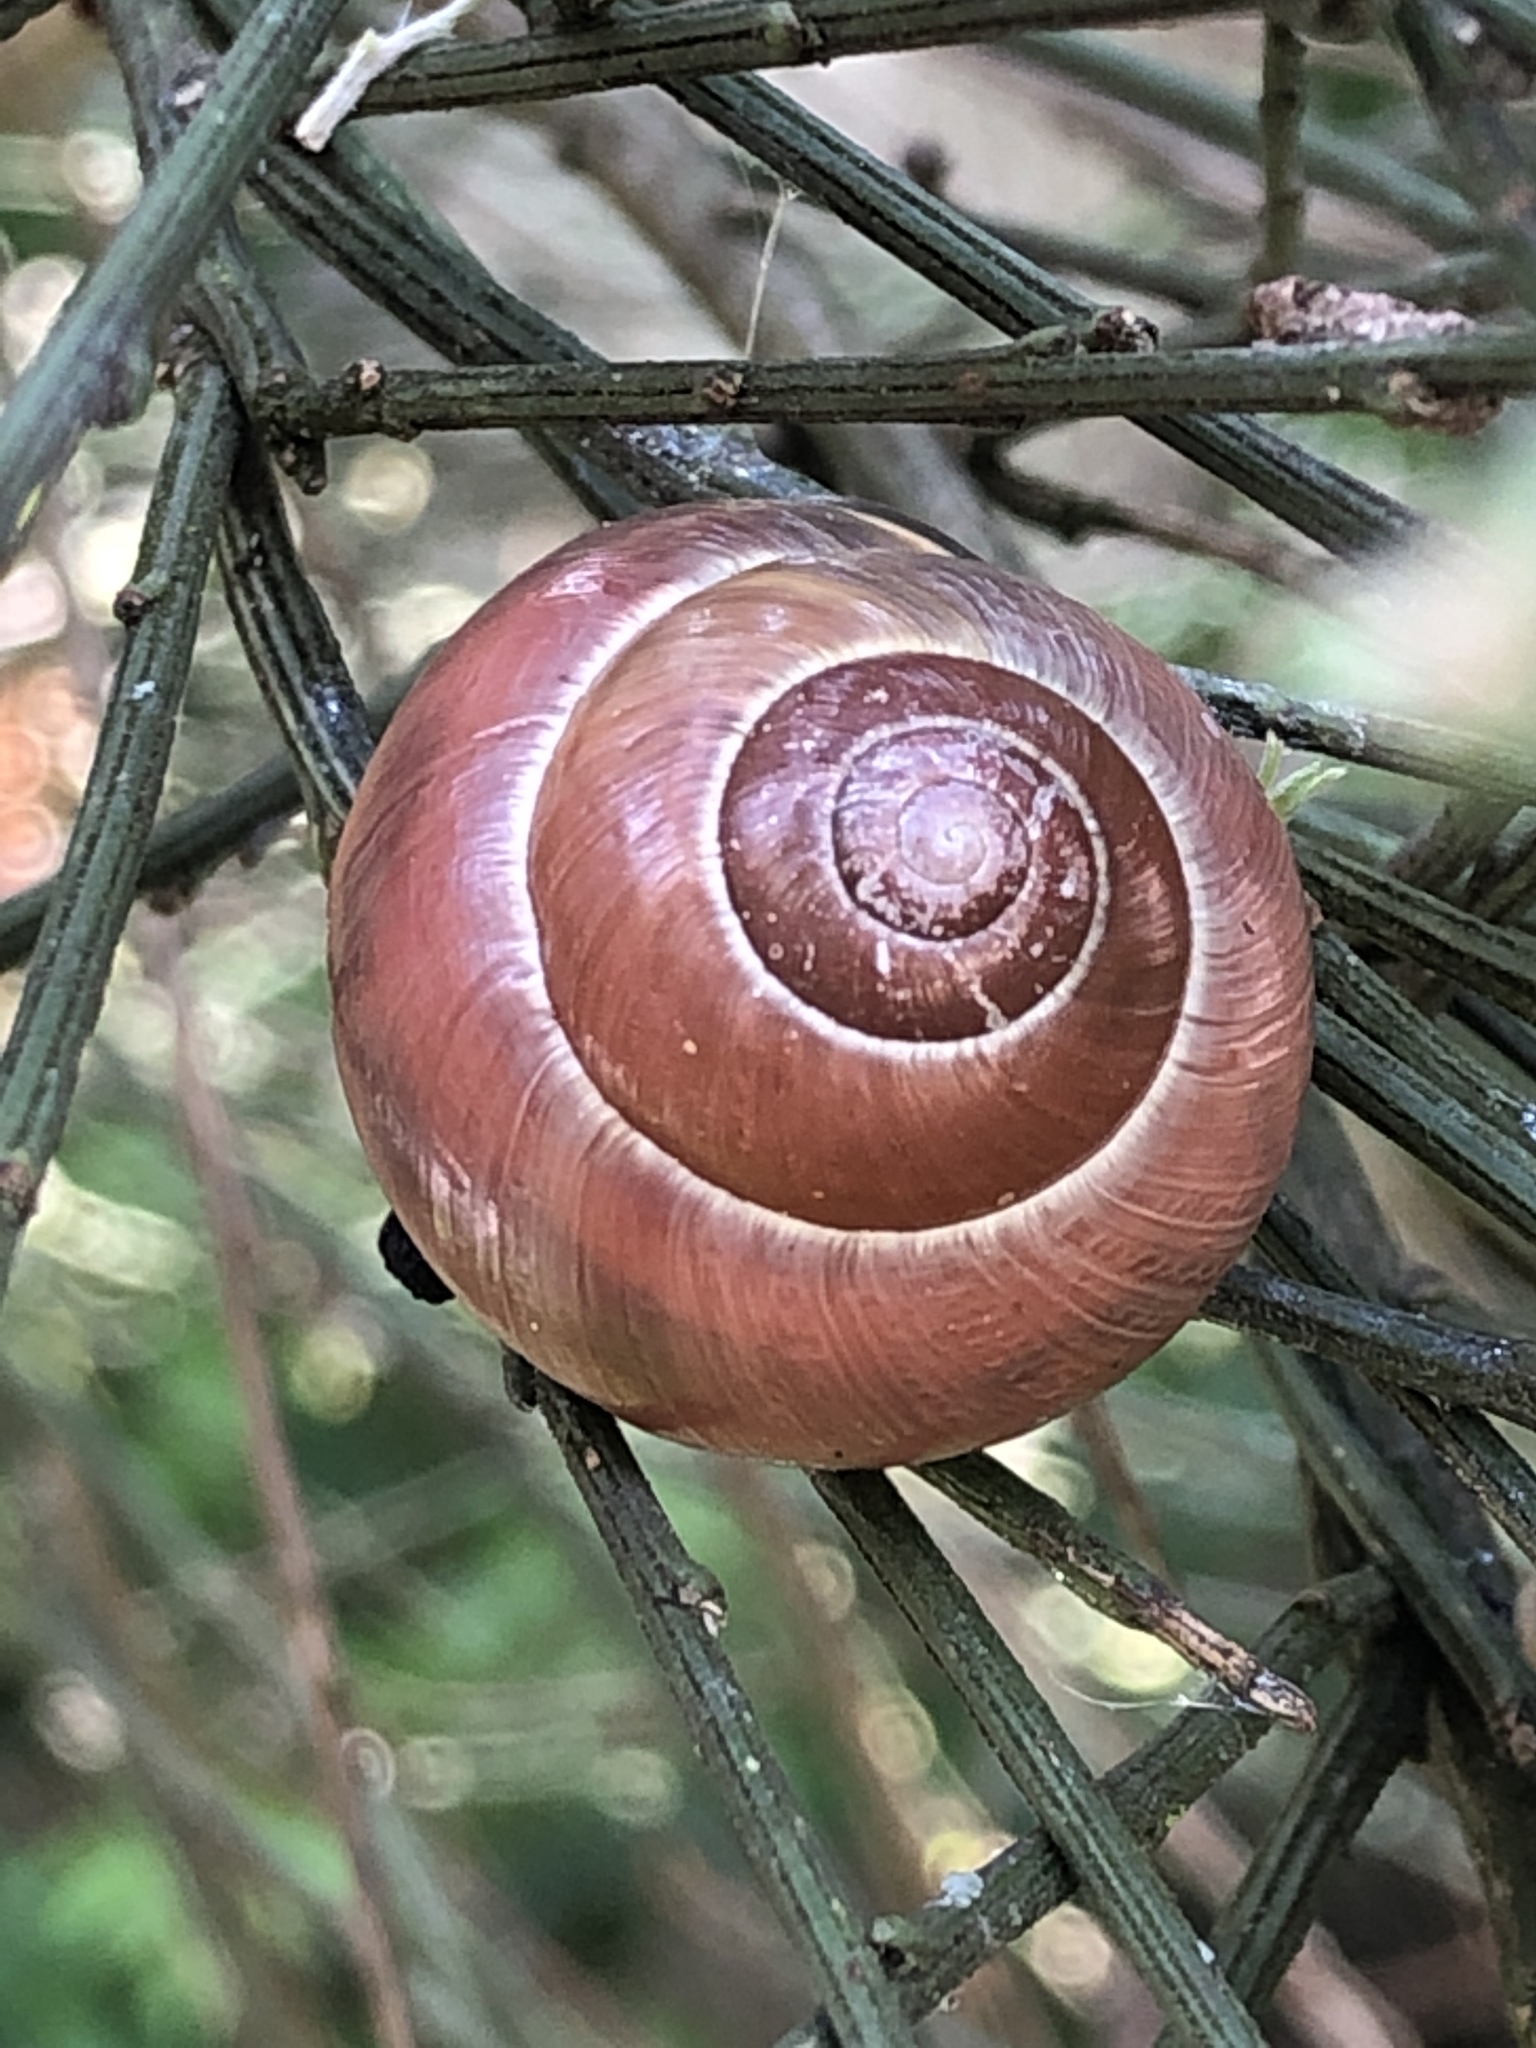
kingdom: Animalia
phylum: Mollusca
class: Gastropoda
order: Stylommatophora
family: Helicidae
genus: Cepaea
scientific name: Cepaea nemoralis
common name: Grovesnail
